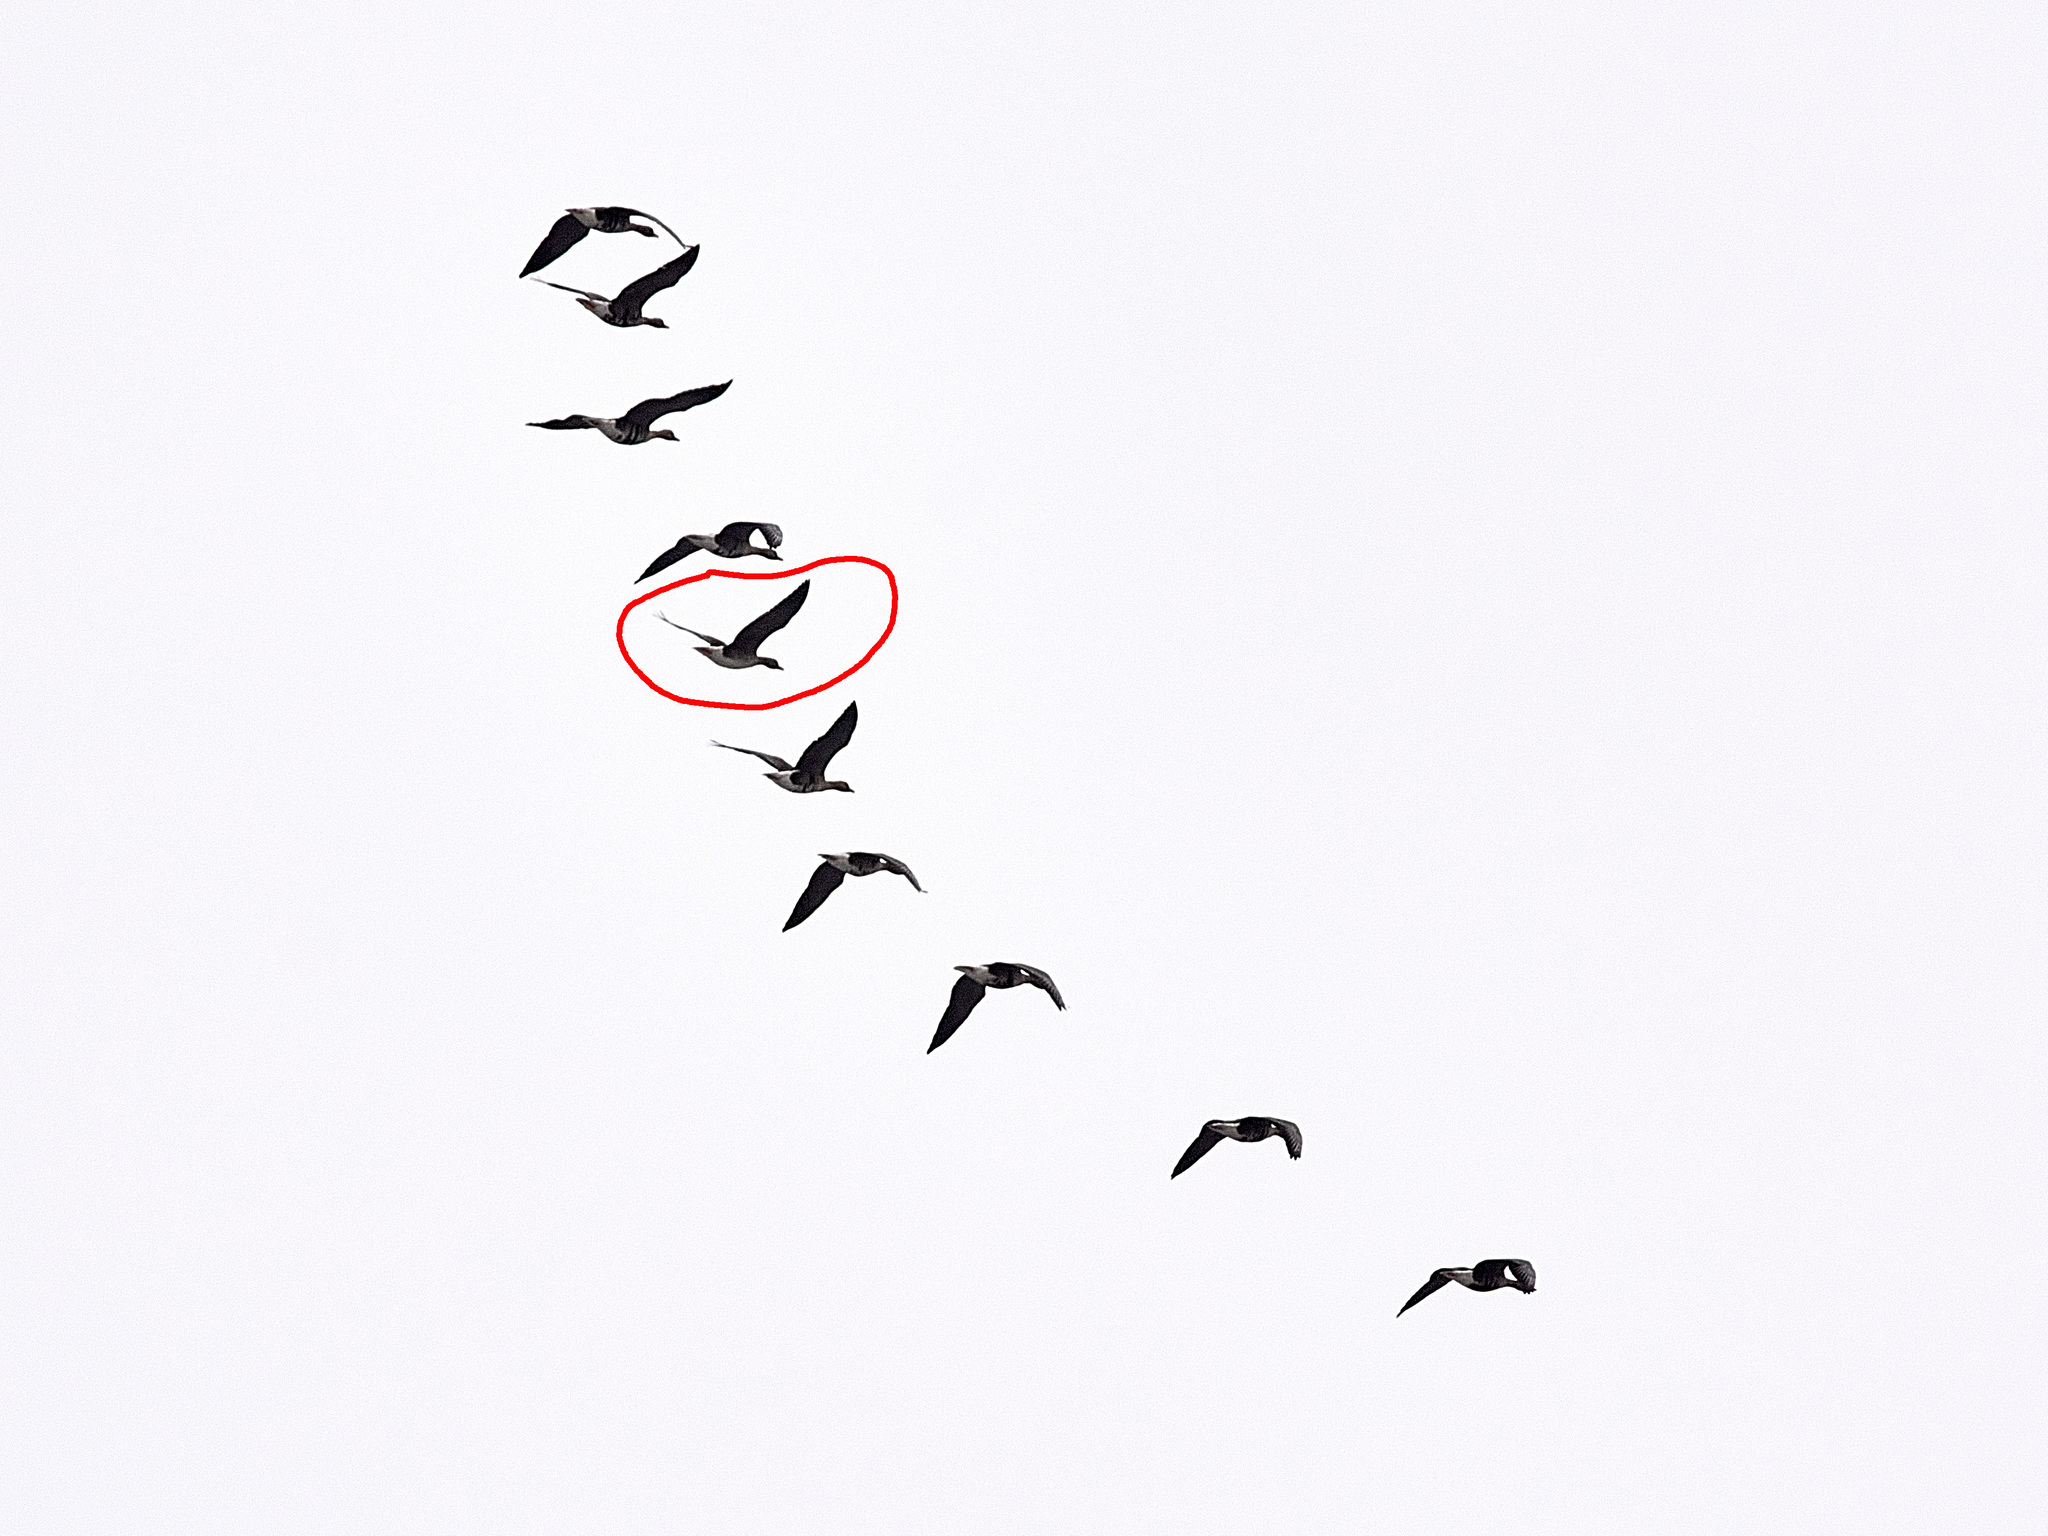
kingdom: Animalia
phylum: Chordata
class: Aves
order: Anseriformes
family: Anatidae
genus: Anser
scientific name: Anser fabalis
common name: Bean goose
